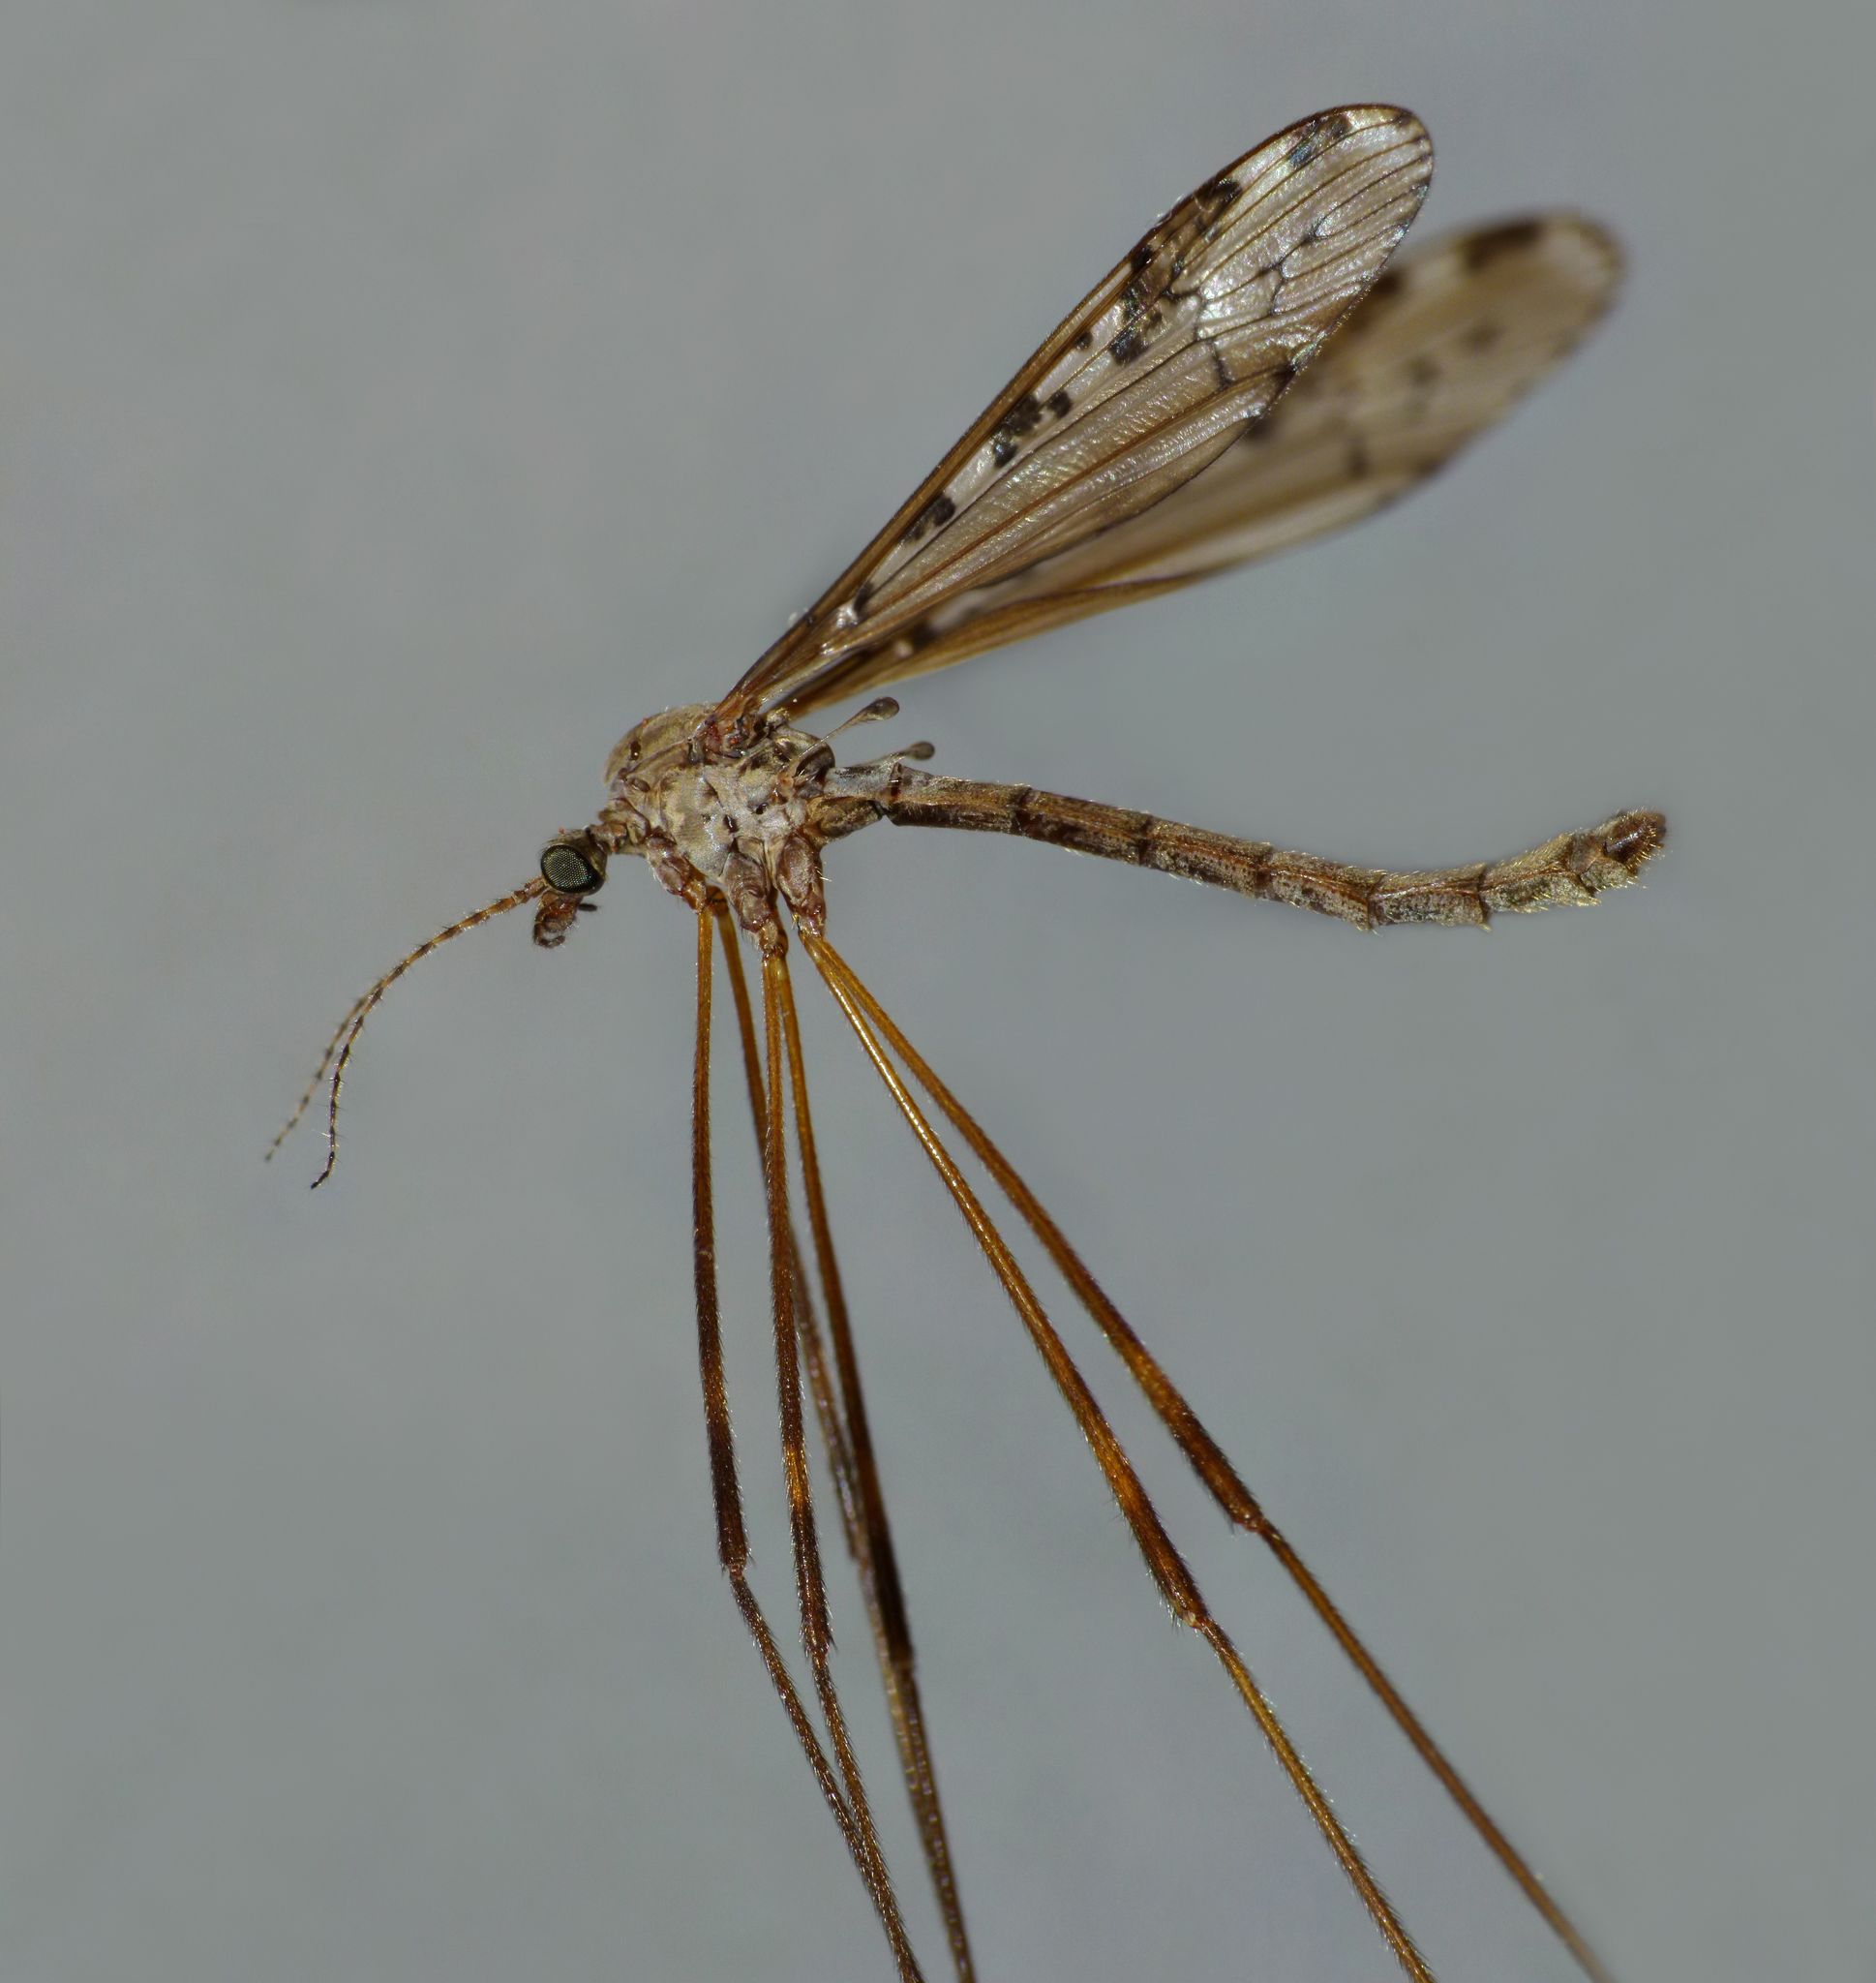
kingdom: Animalia
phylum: Arthropoda
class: Insecta
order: Diptera
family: Limoniidae
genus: Paralimnophila
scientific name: Paralimnophila skusei
